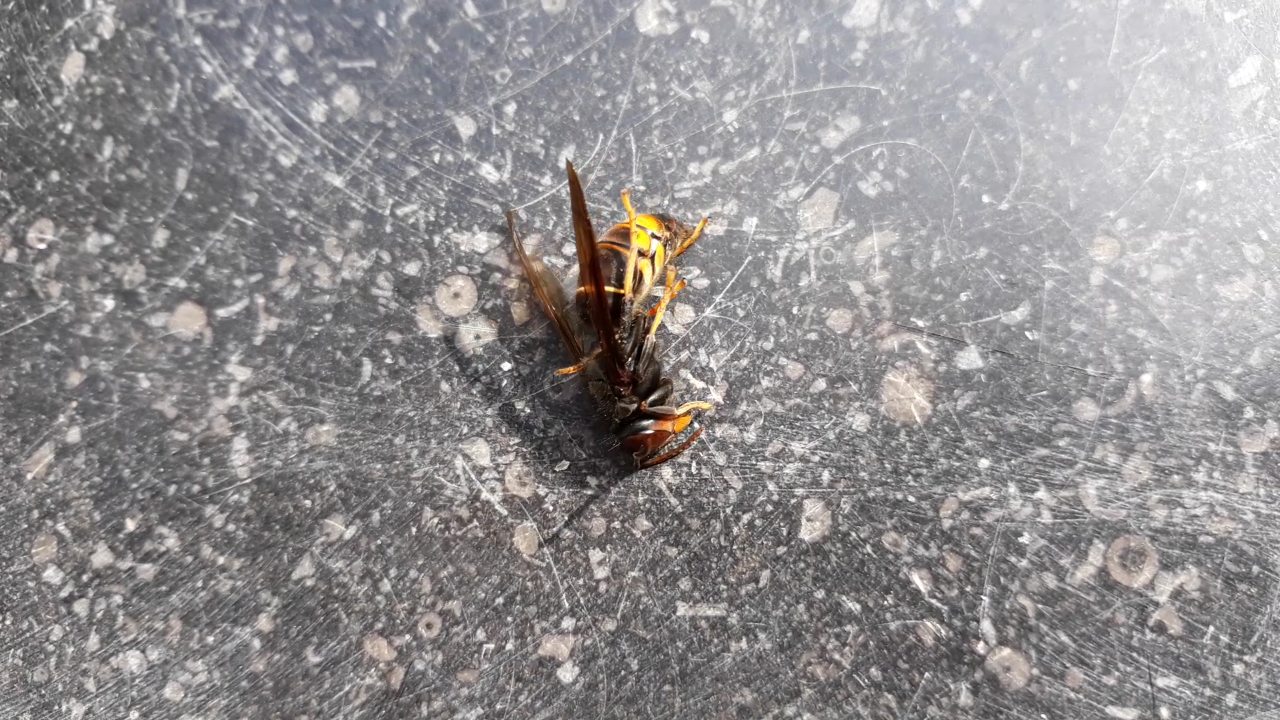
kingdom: Animalia
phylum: Arthropoda
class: Insecta
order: Hymenoptera
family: Vespidae
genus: Vespa
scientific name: Vespa velutina
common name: Asian hornet
